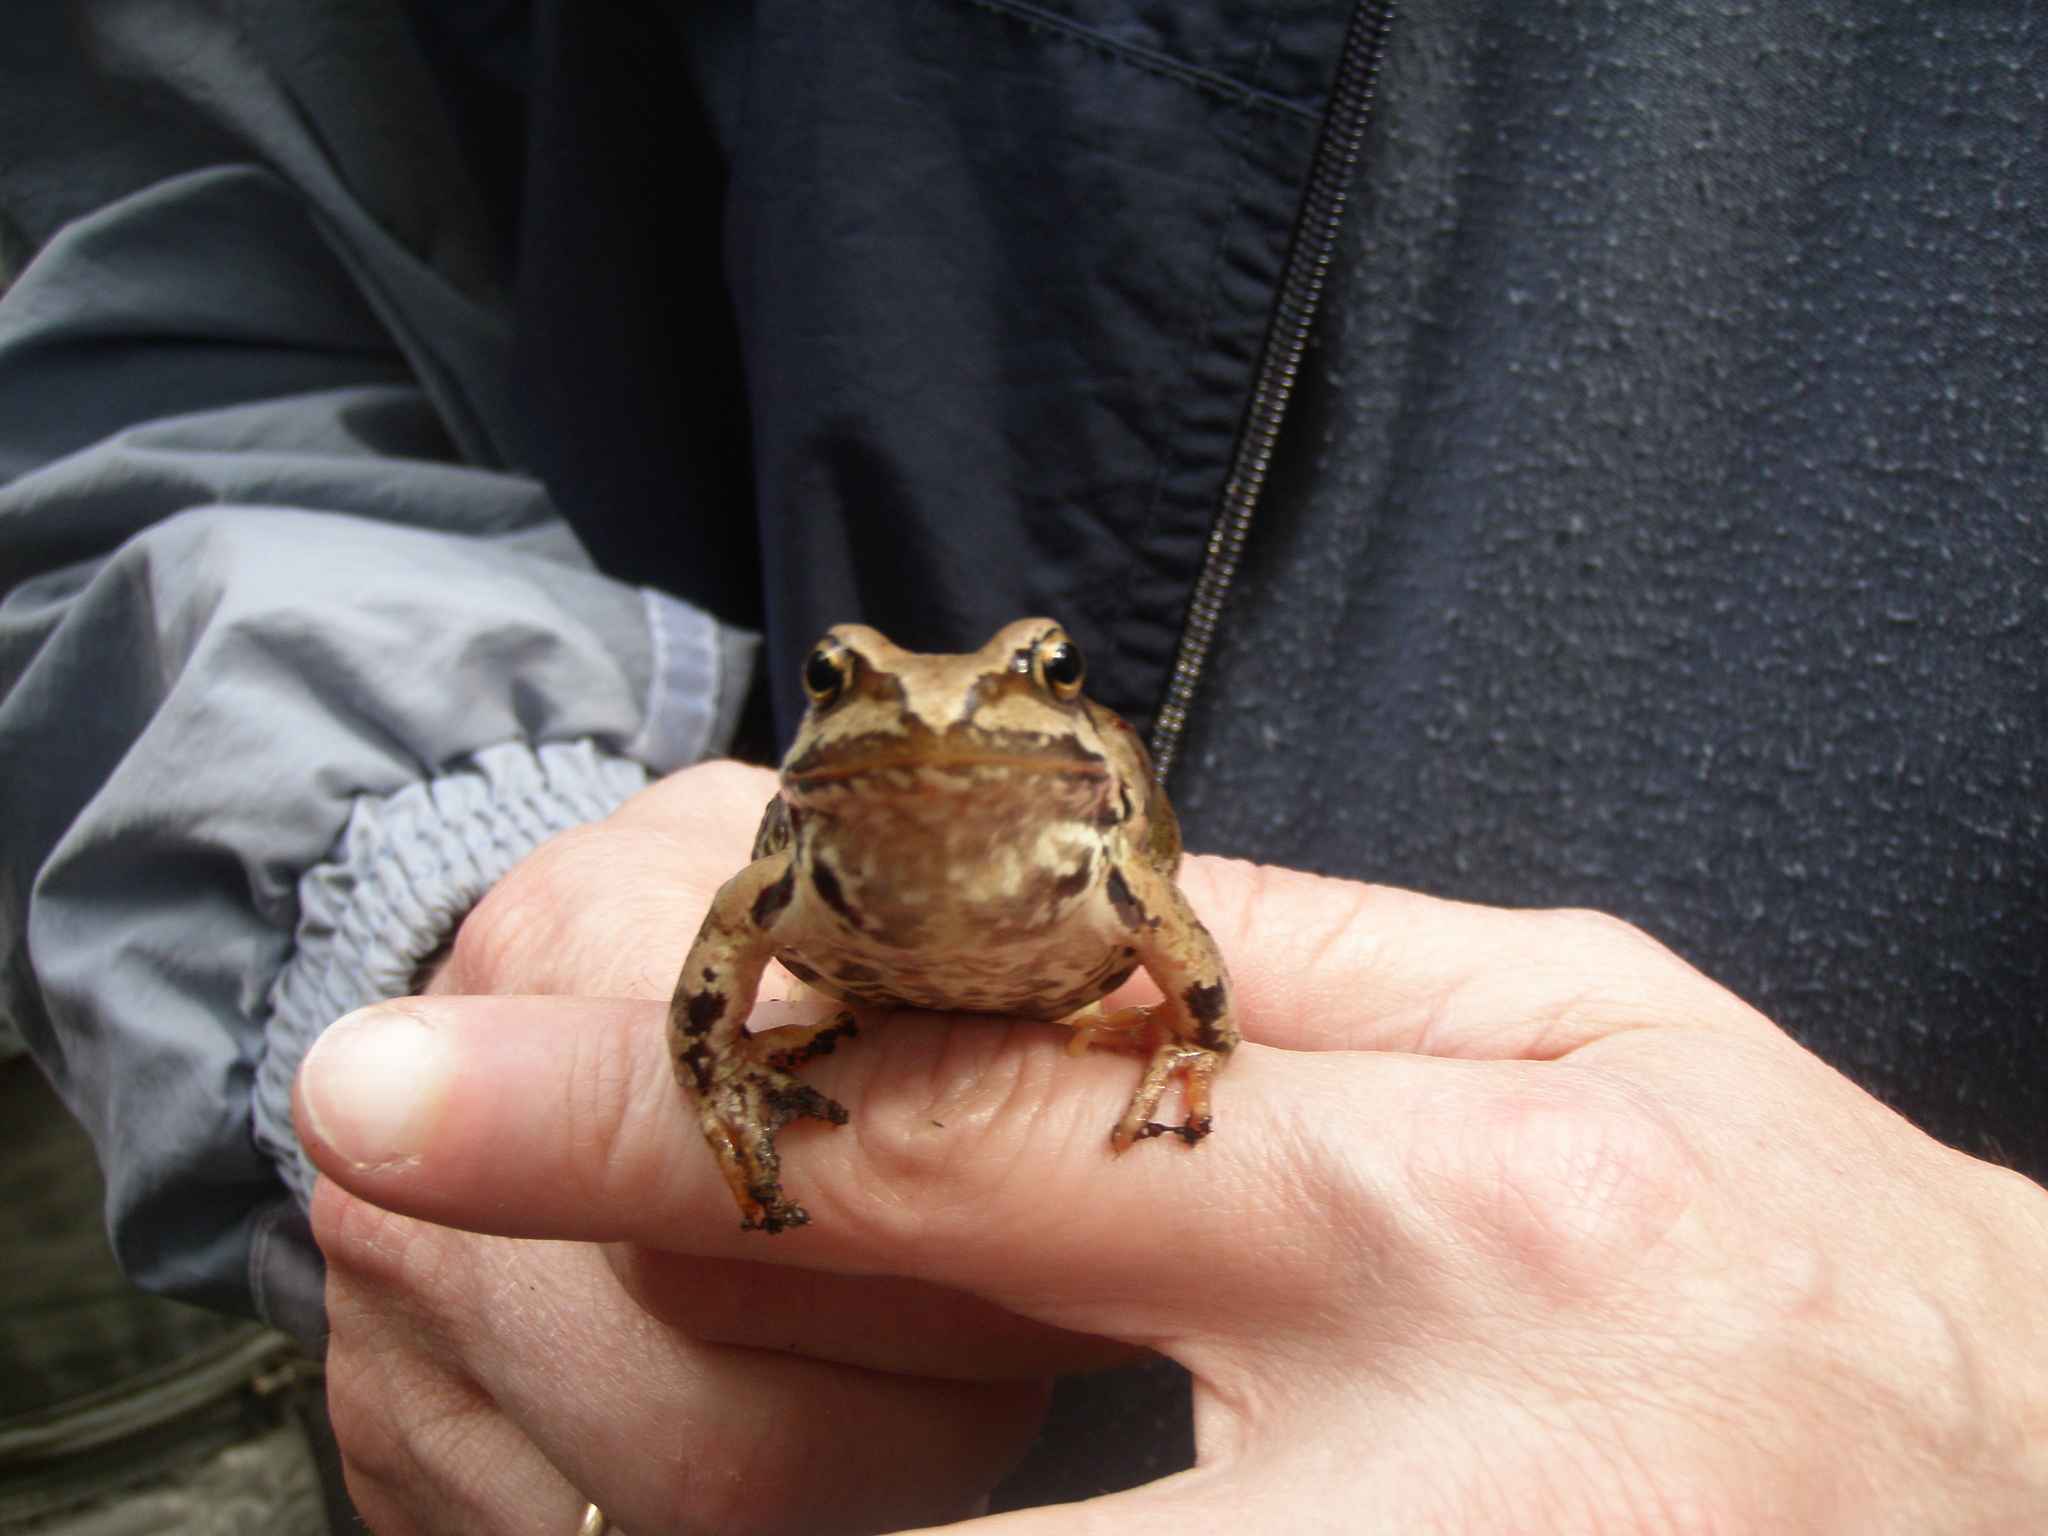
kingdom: Animalia
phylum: Chordata
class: Amphibia
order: Anura
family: Ranidae
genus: Rana
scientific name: Rana temporaria
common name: Common frog
